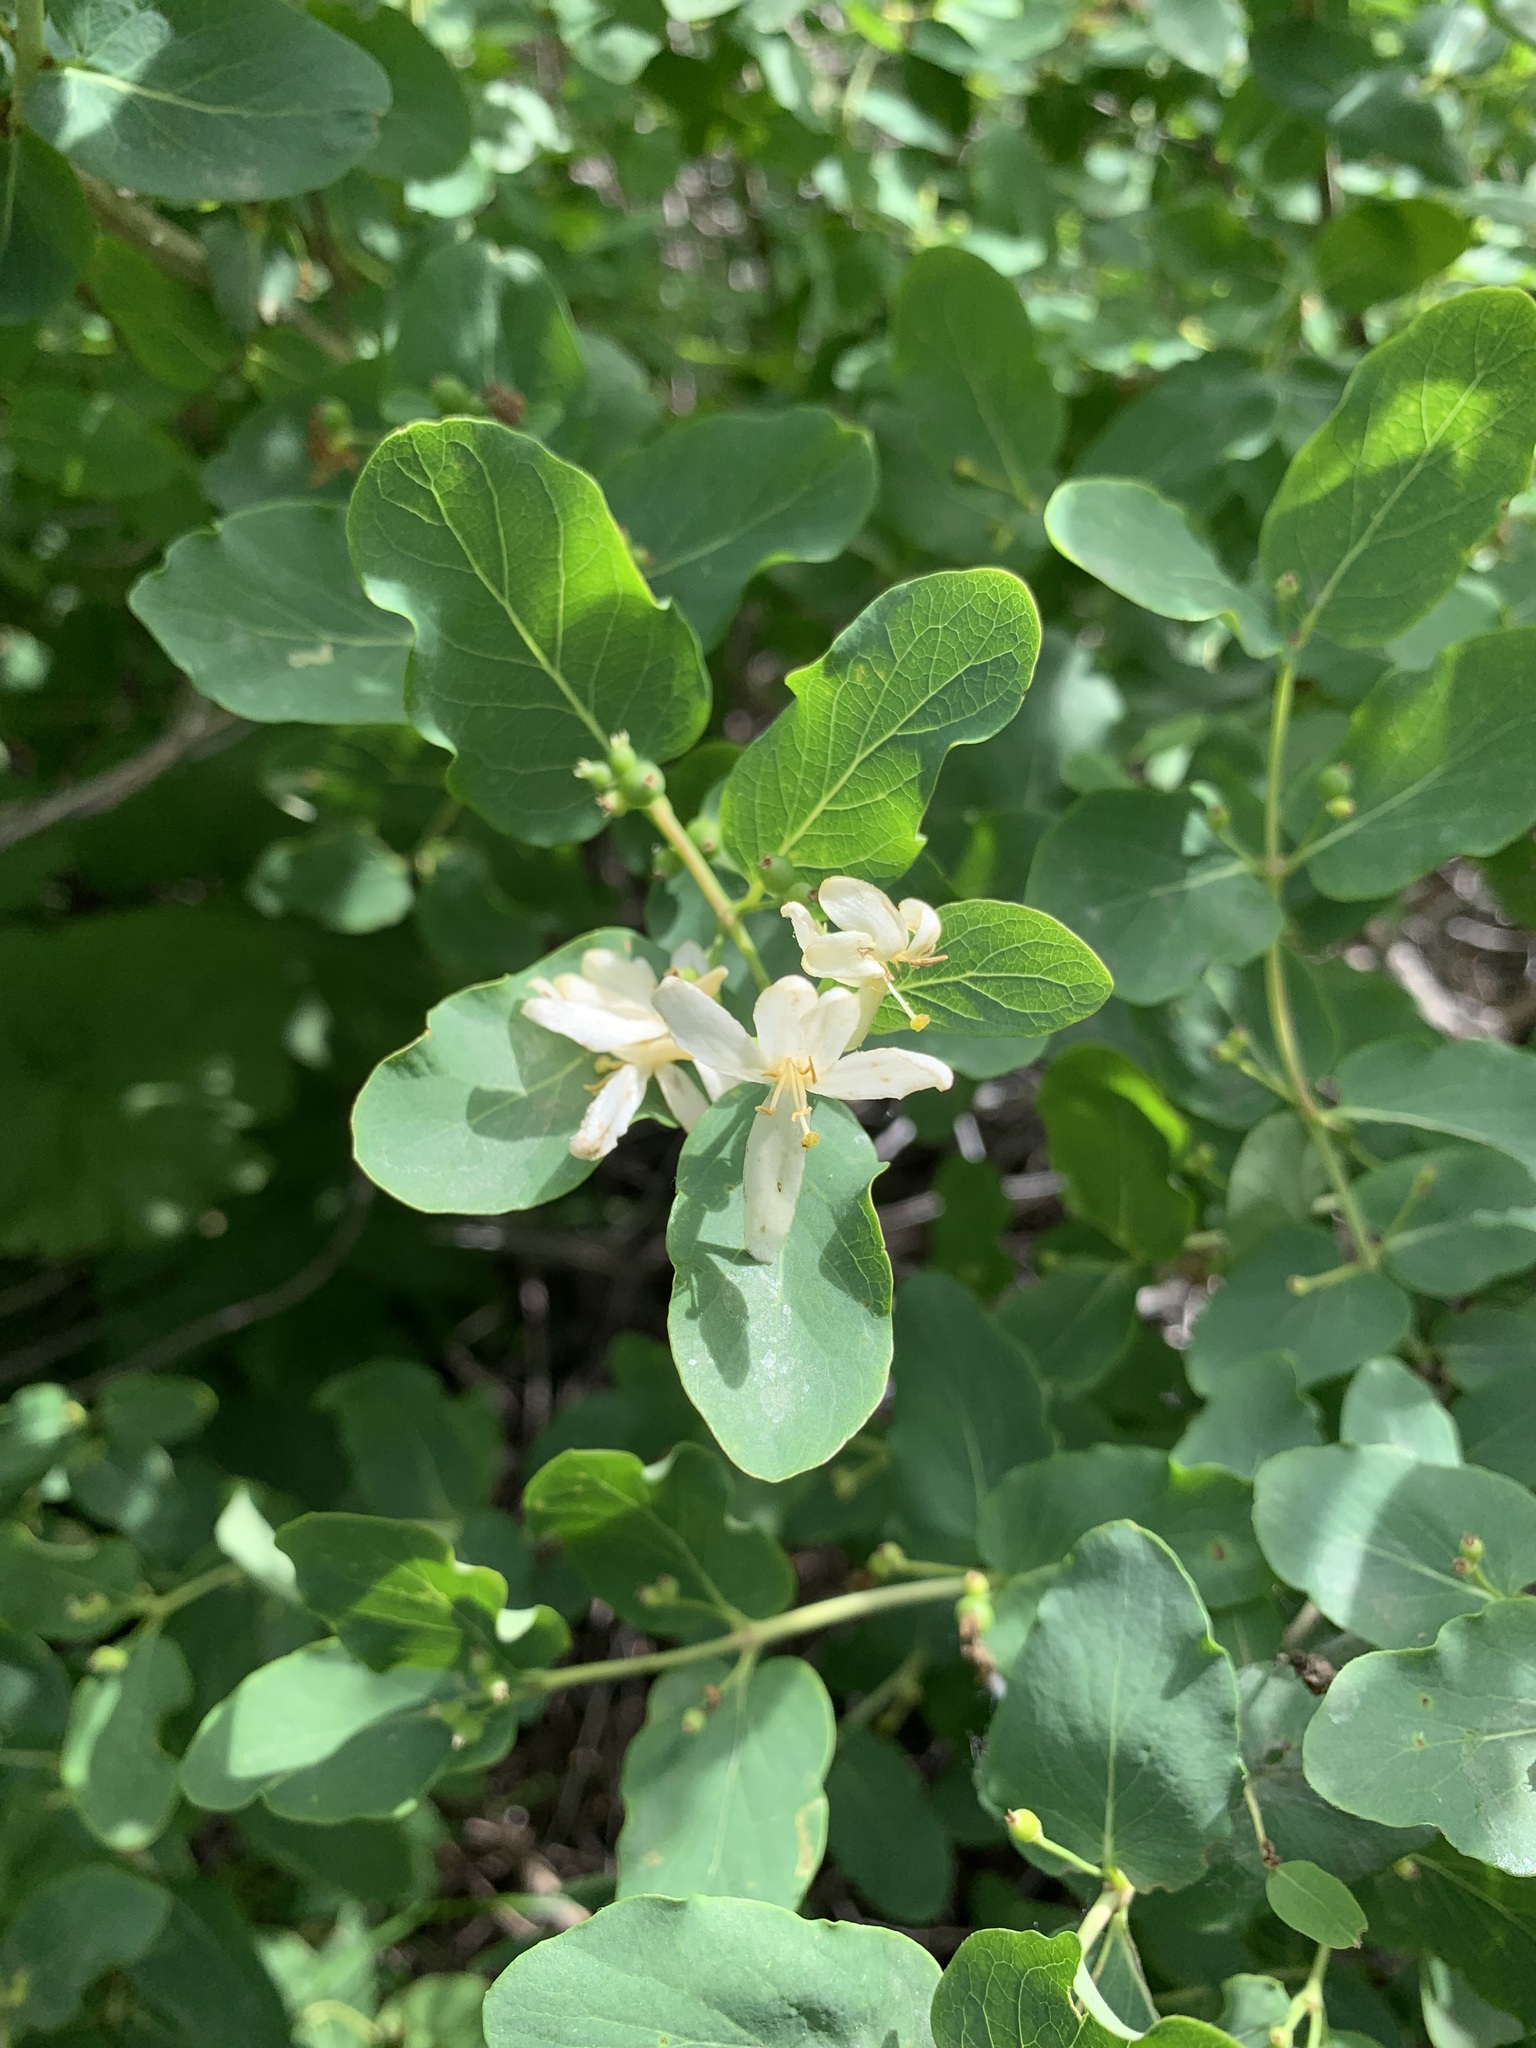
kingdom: Plantae
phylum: Tracheophyta
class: Magnoliopsida
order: Dipsacales
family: Caprifoliaceae
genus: Lonicera
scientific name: Lonicera tatarica
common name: Tatarian honeysuckle
